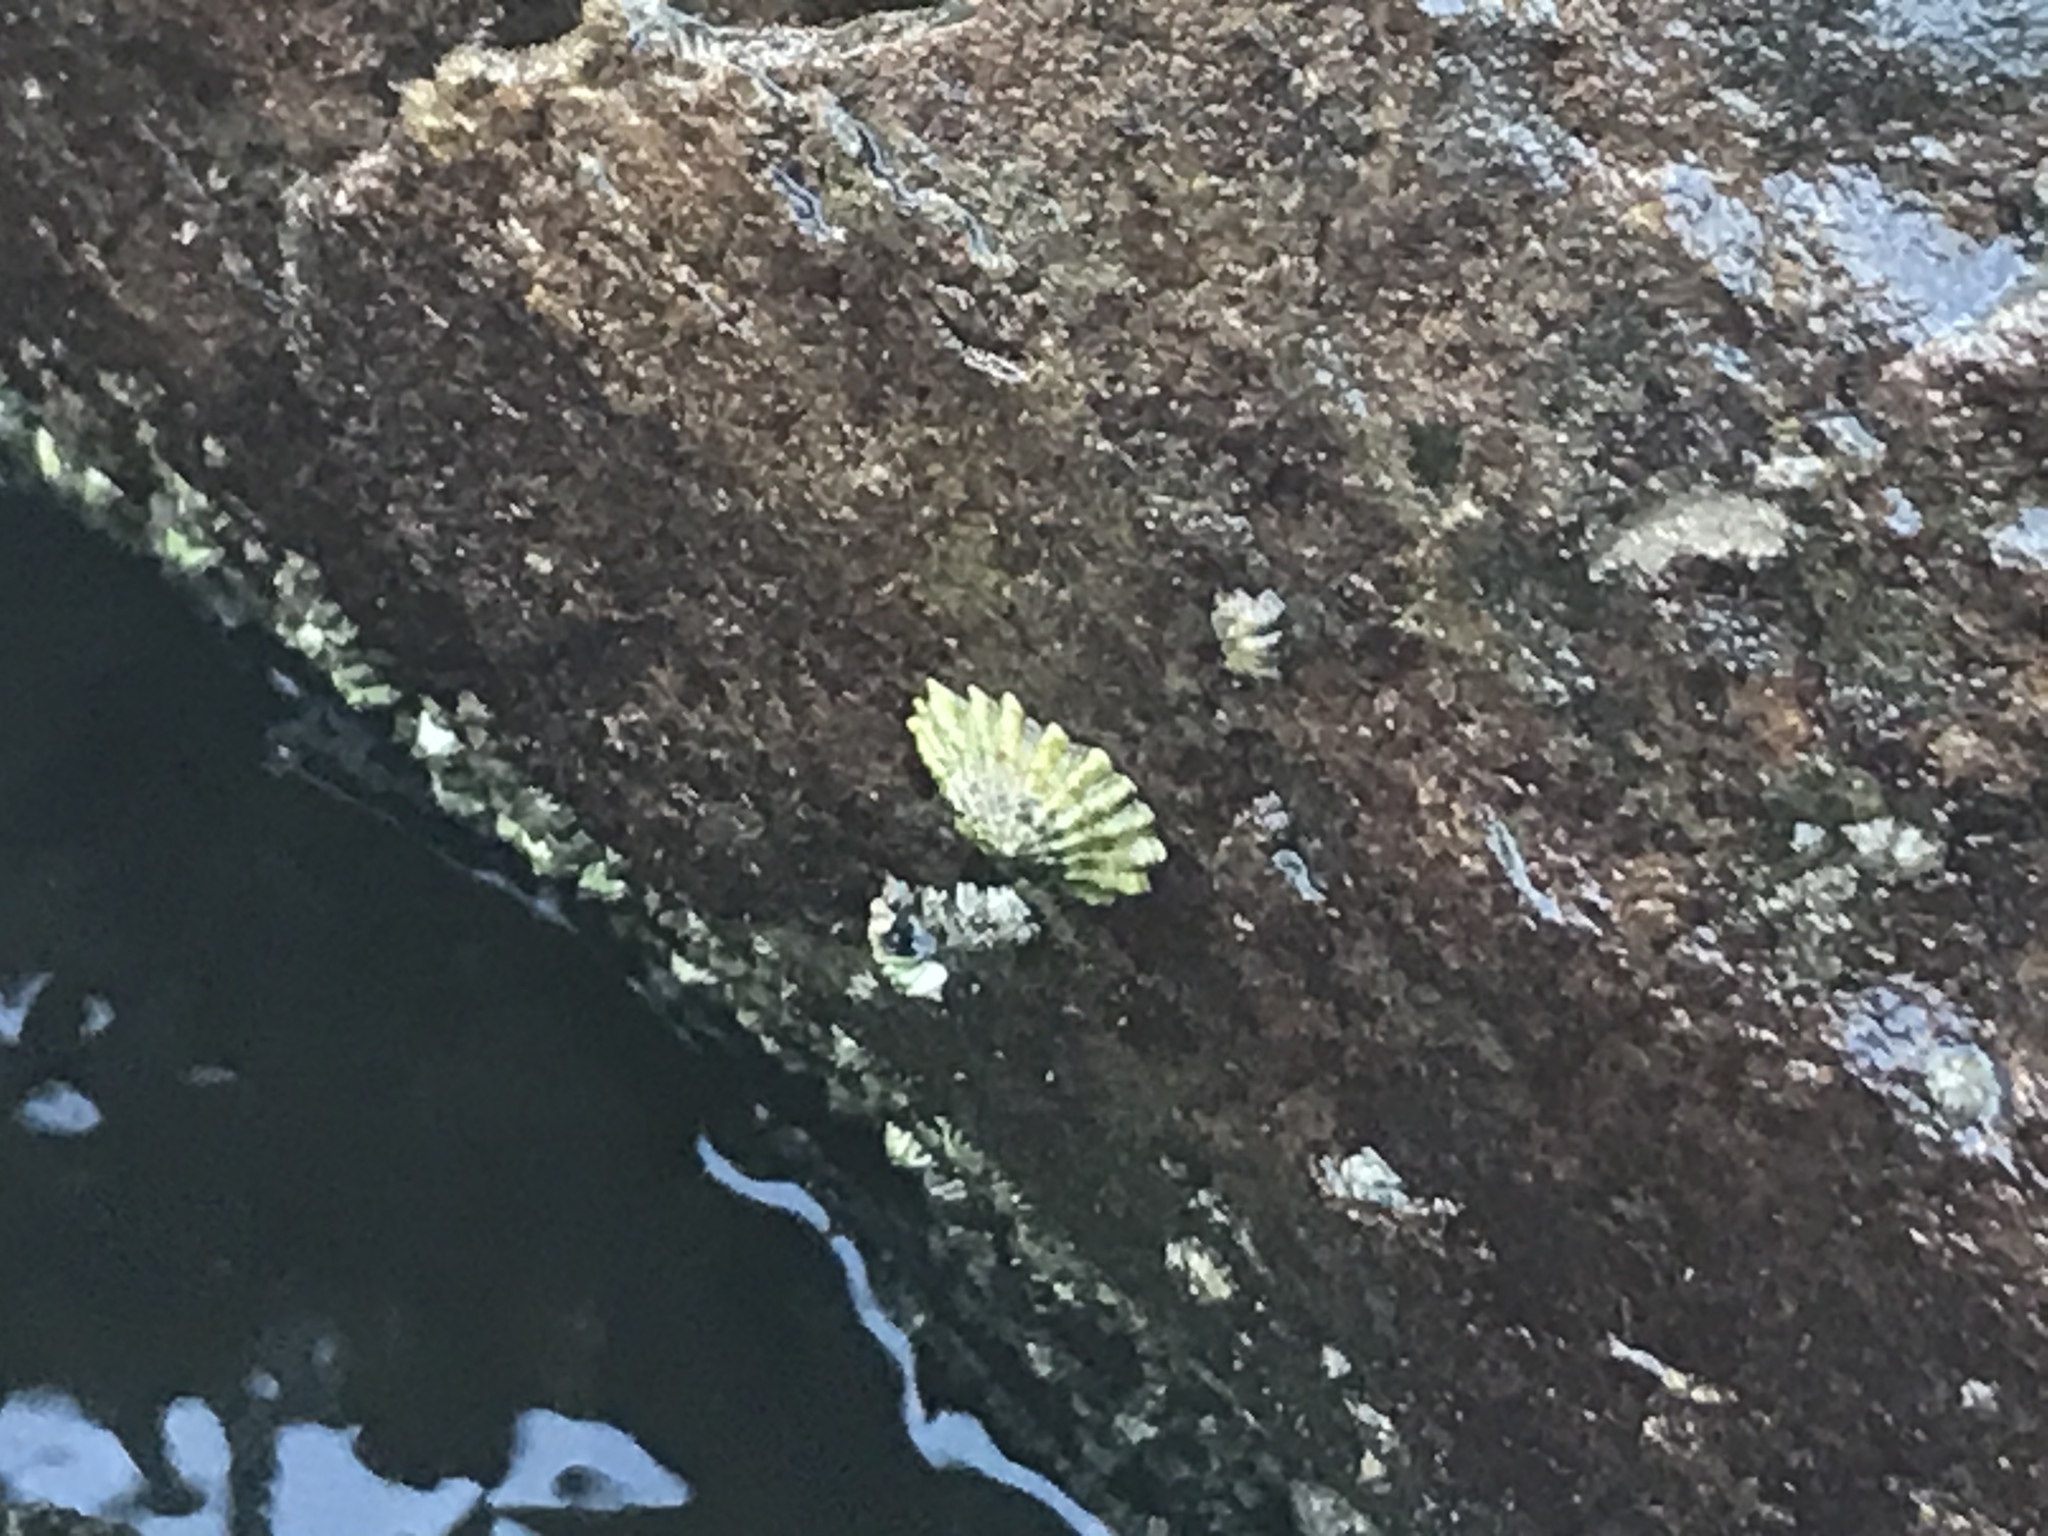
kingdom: Animalia
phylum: Mollusca
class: Gastropoda
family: Lottiidae
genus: Lottia
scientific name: Lottia scabra
